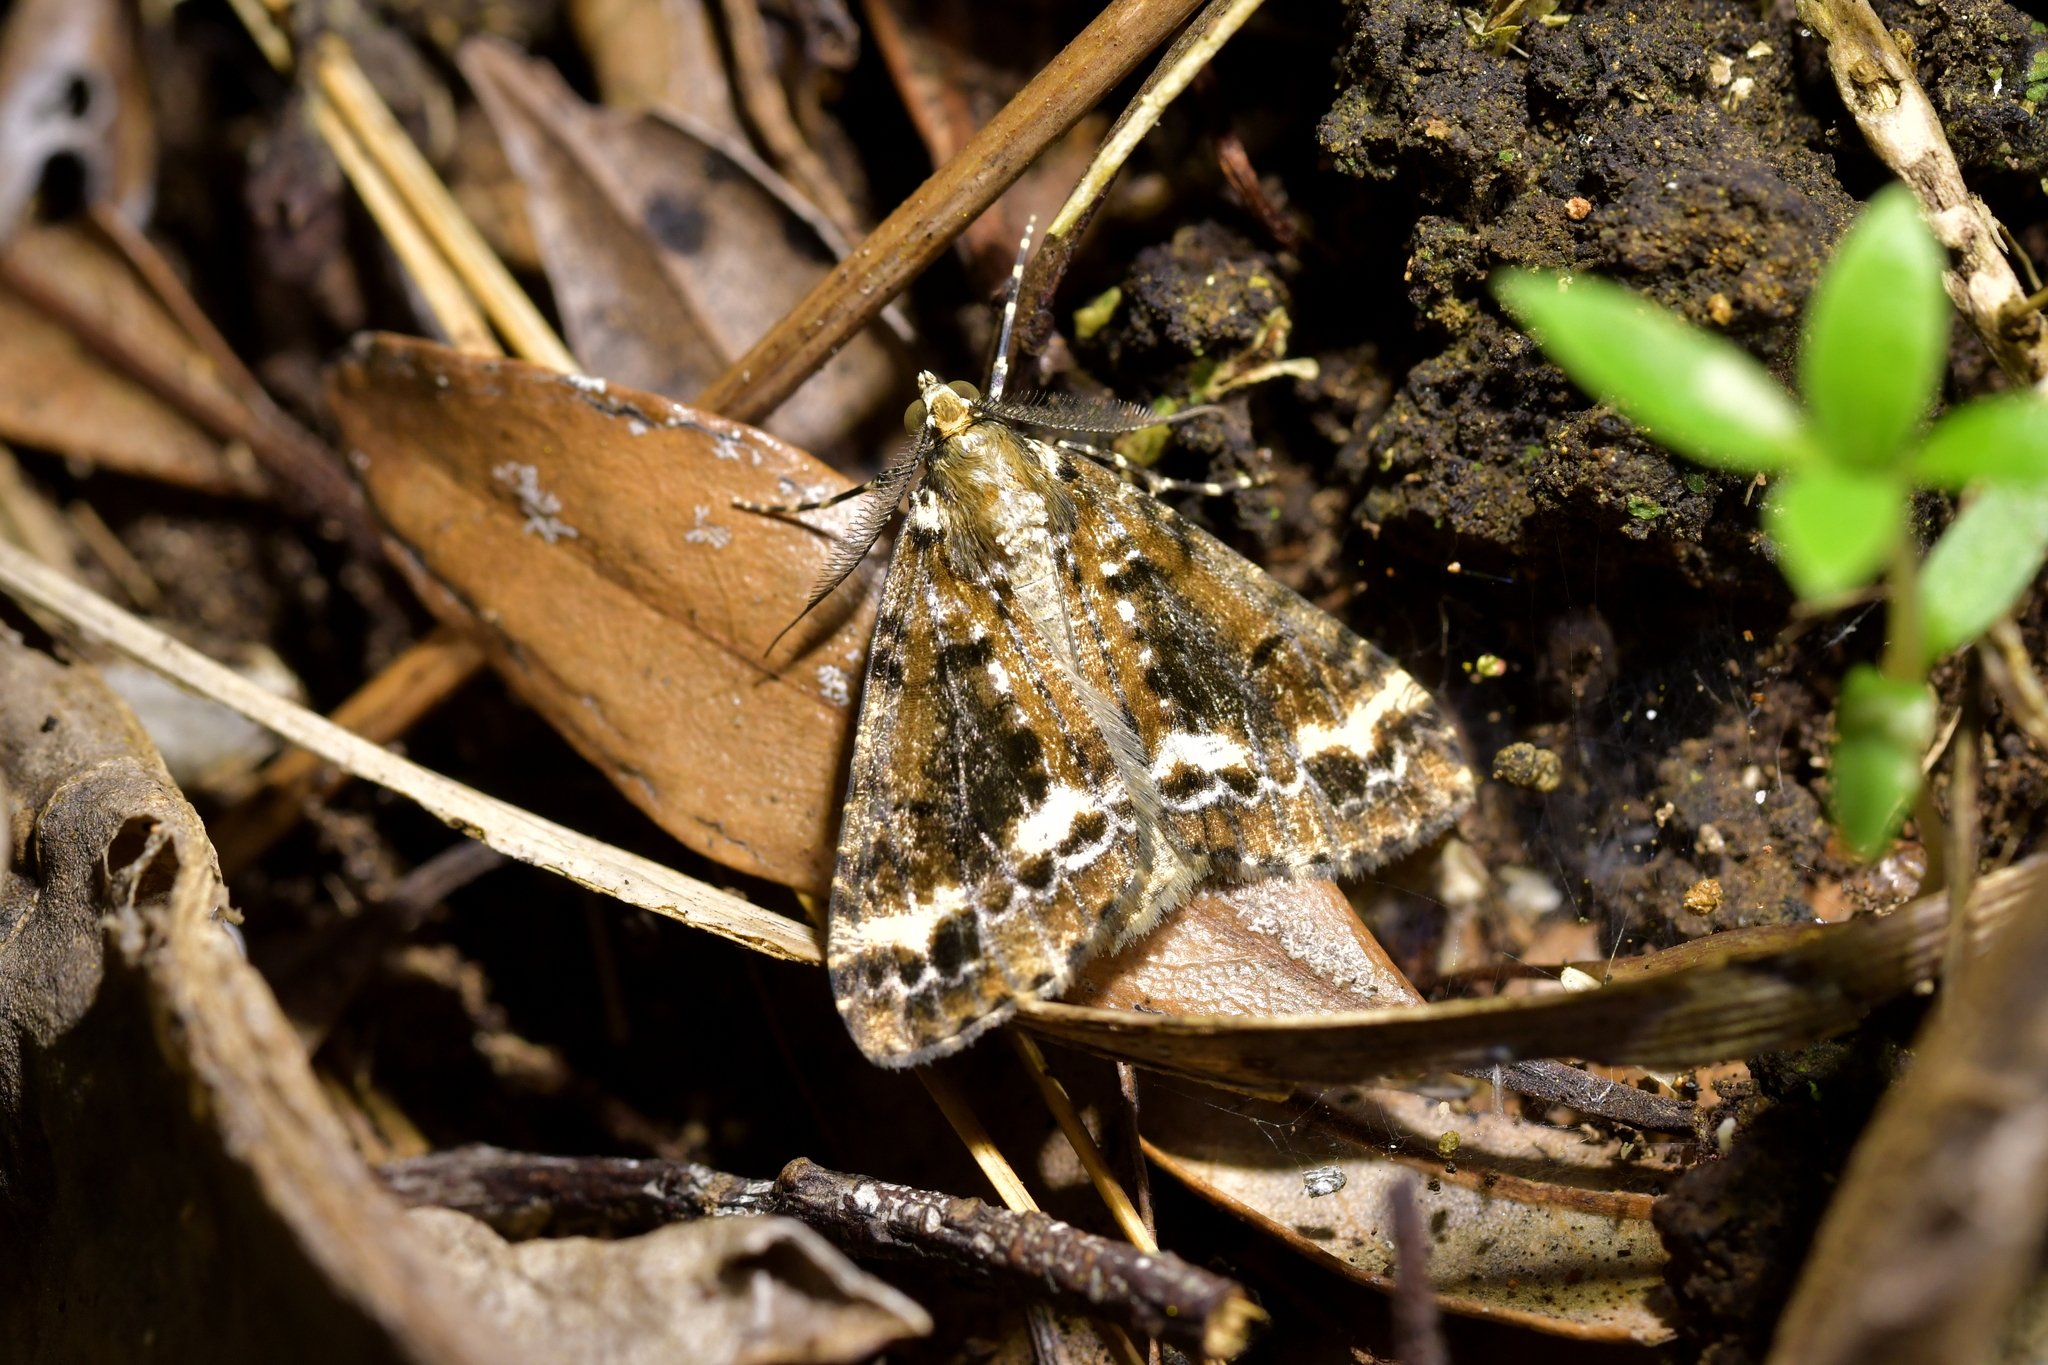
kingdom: Animalia
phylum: Arthropoda
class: Insecta
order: Lepidoptera
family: Geometridae
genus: Pseudocoremia
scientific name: Pseudocoremia leucelaea
